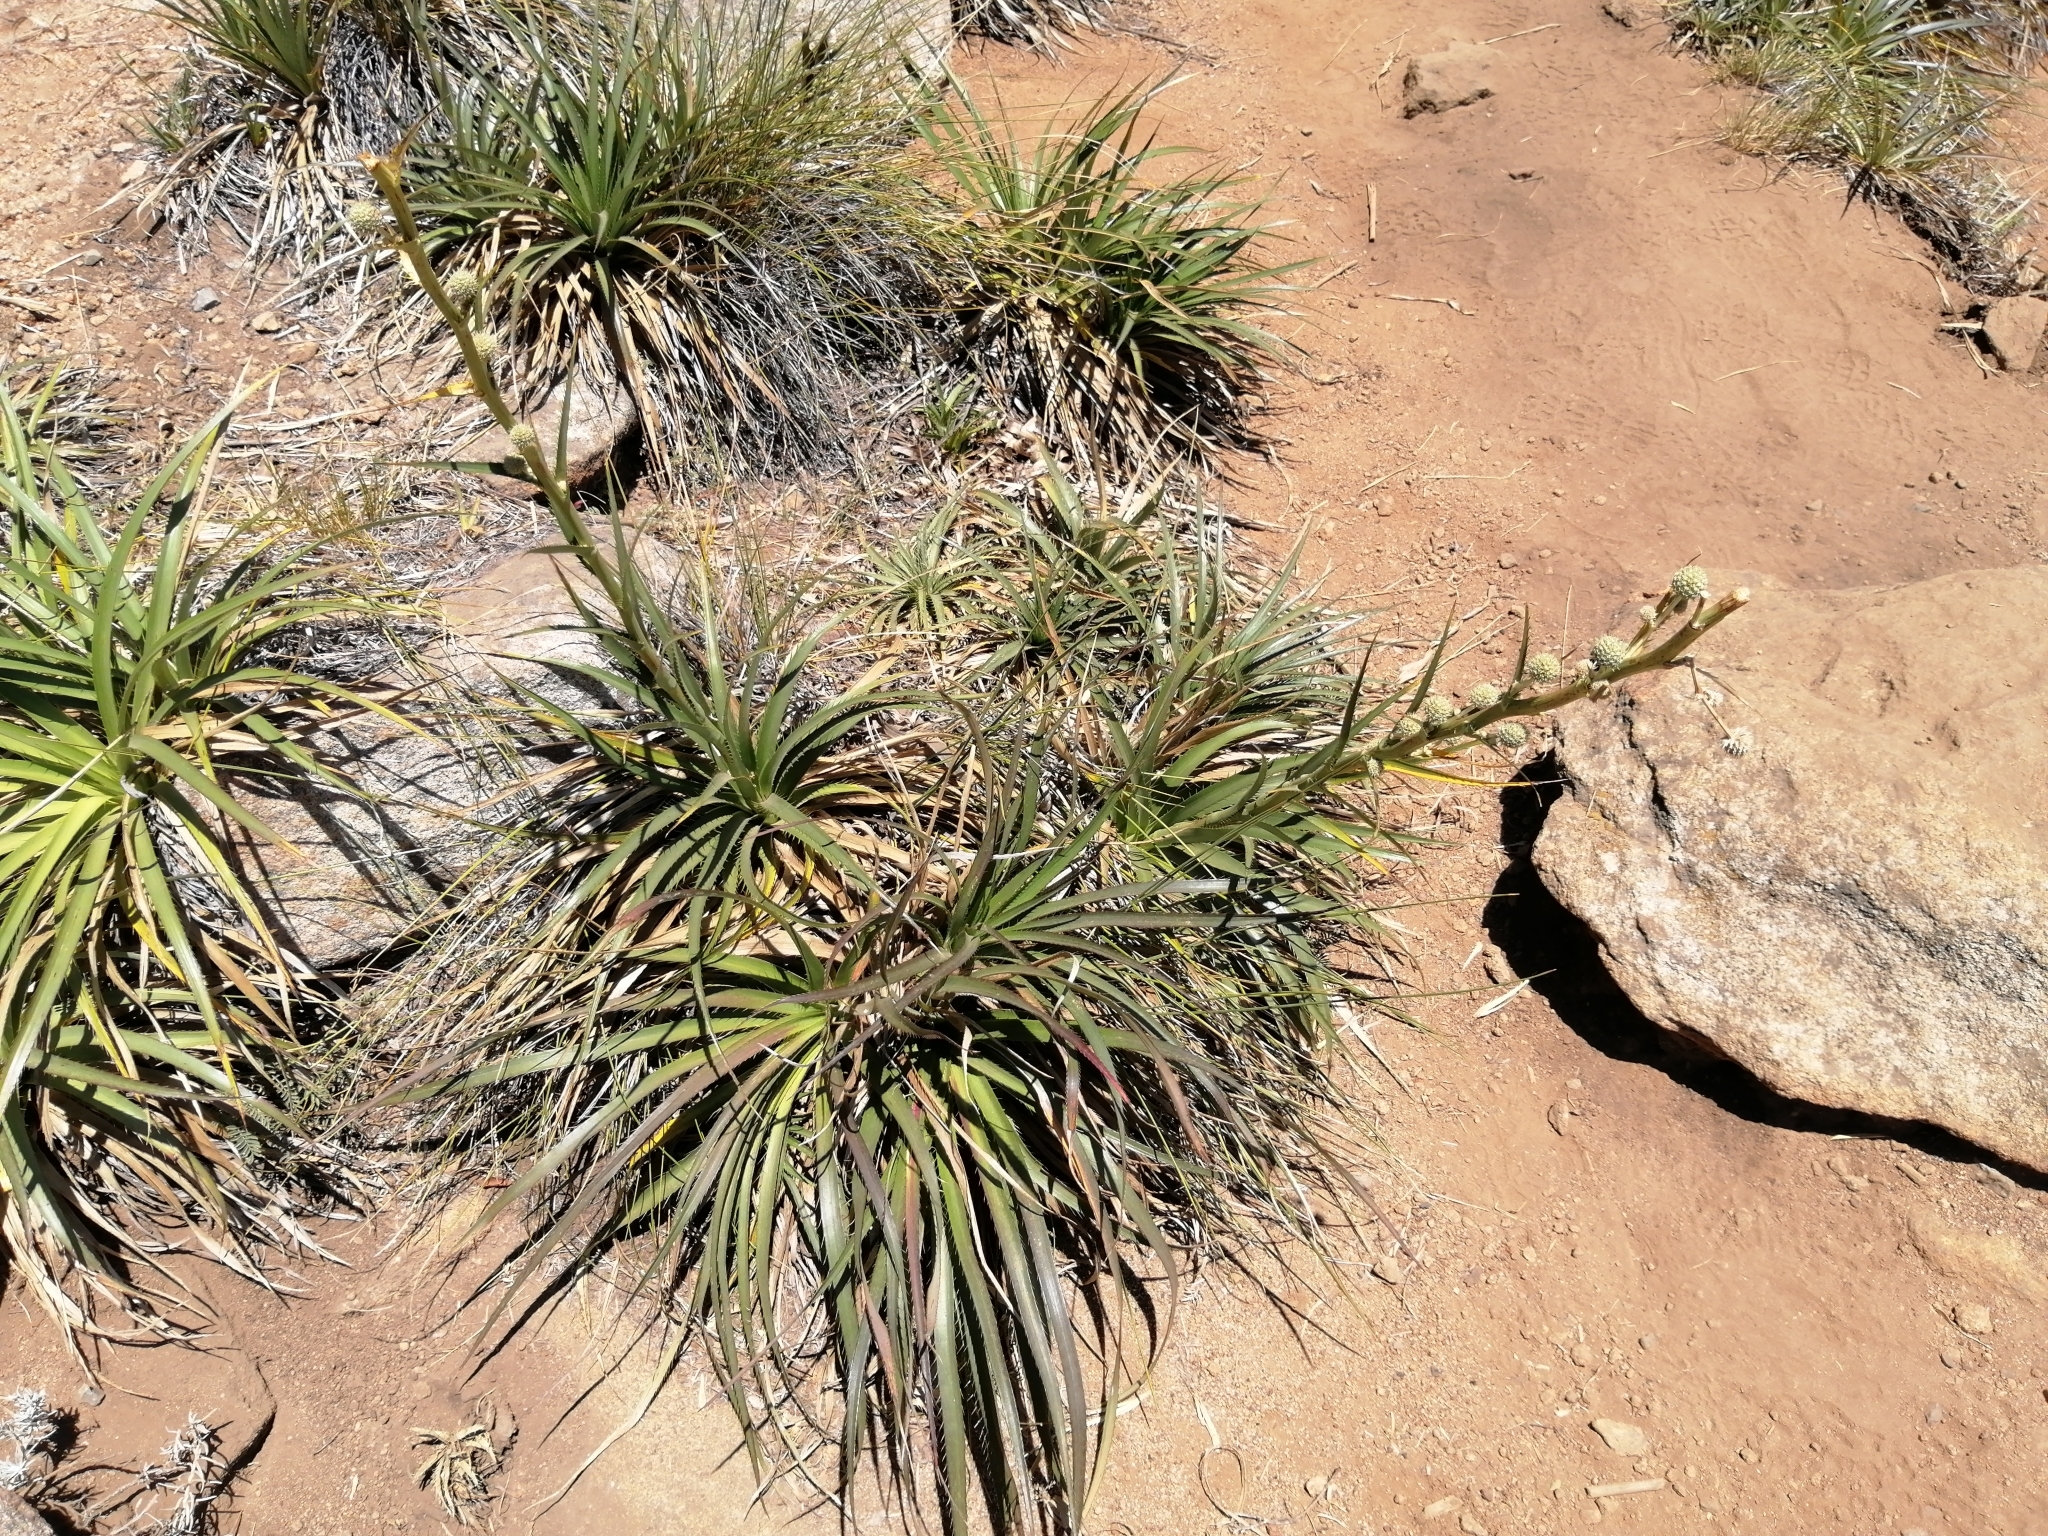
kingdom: Plantae
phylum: Tracheophyta
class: Magnoliopsida
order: Apiales
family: Apiaceae
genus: Eryngium
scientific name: Eryngium humboldtii
